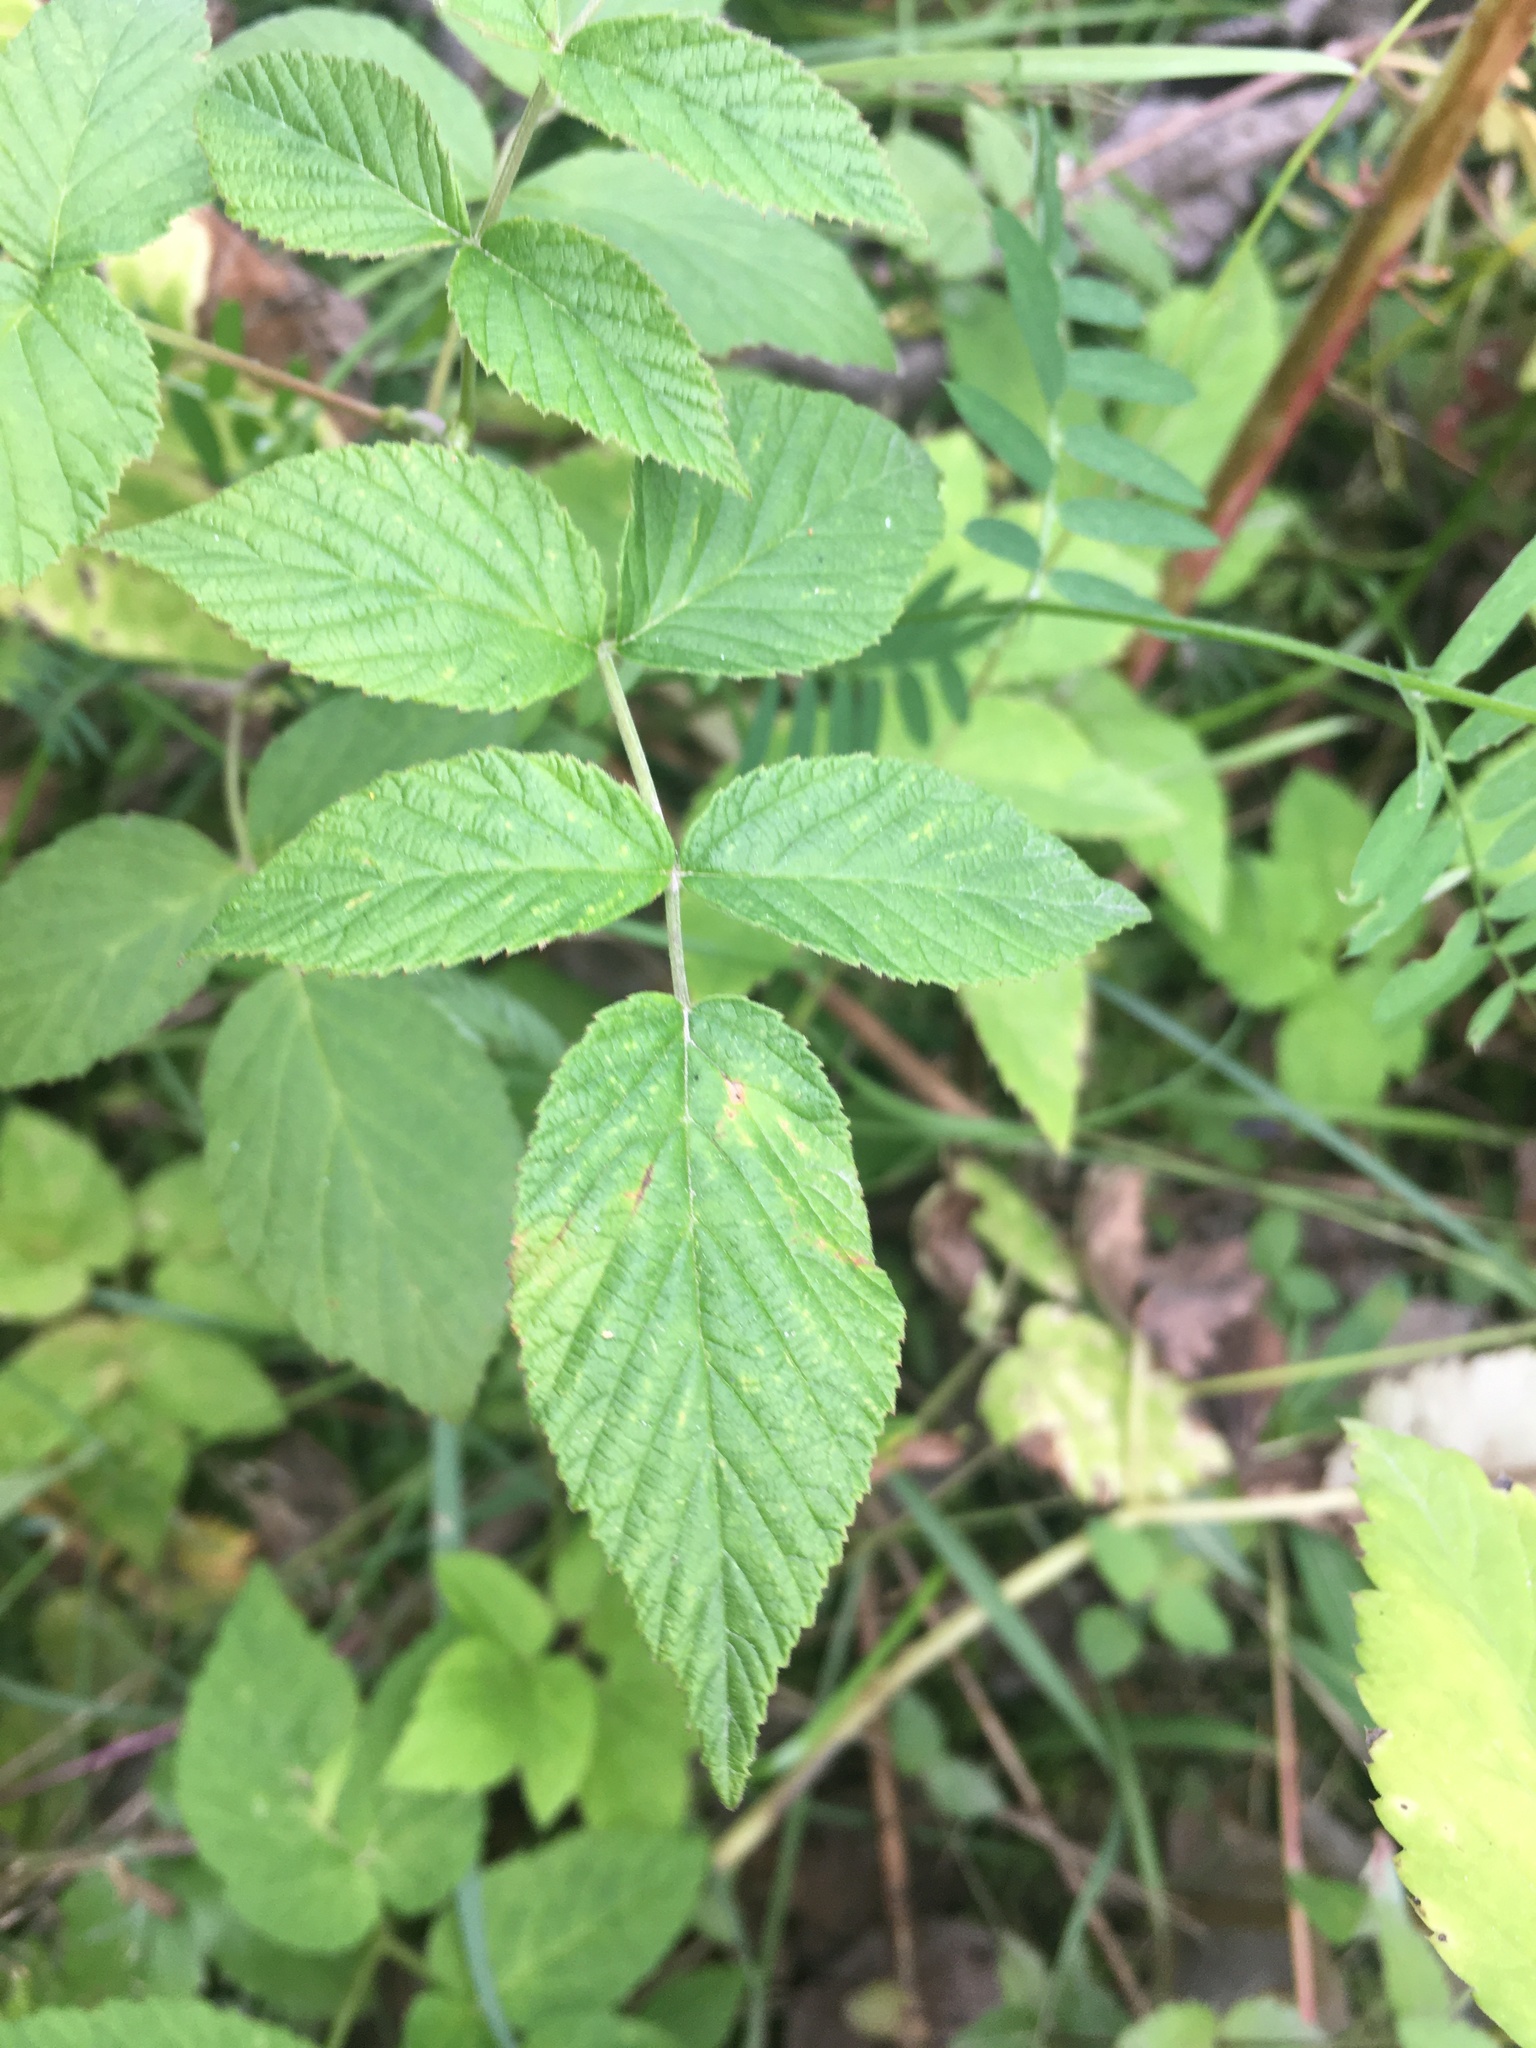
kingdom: Plantae
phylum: Tracheophyta
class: Magnoliopsida
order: Rosales
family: Rosaceae
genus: Rubus
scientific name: Rubus idaeus
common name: Raspberry
